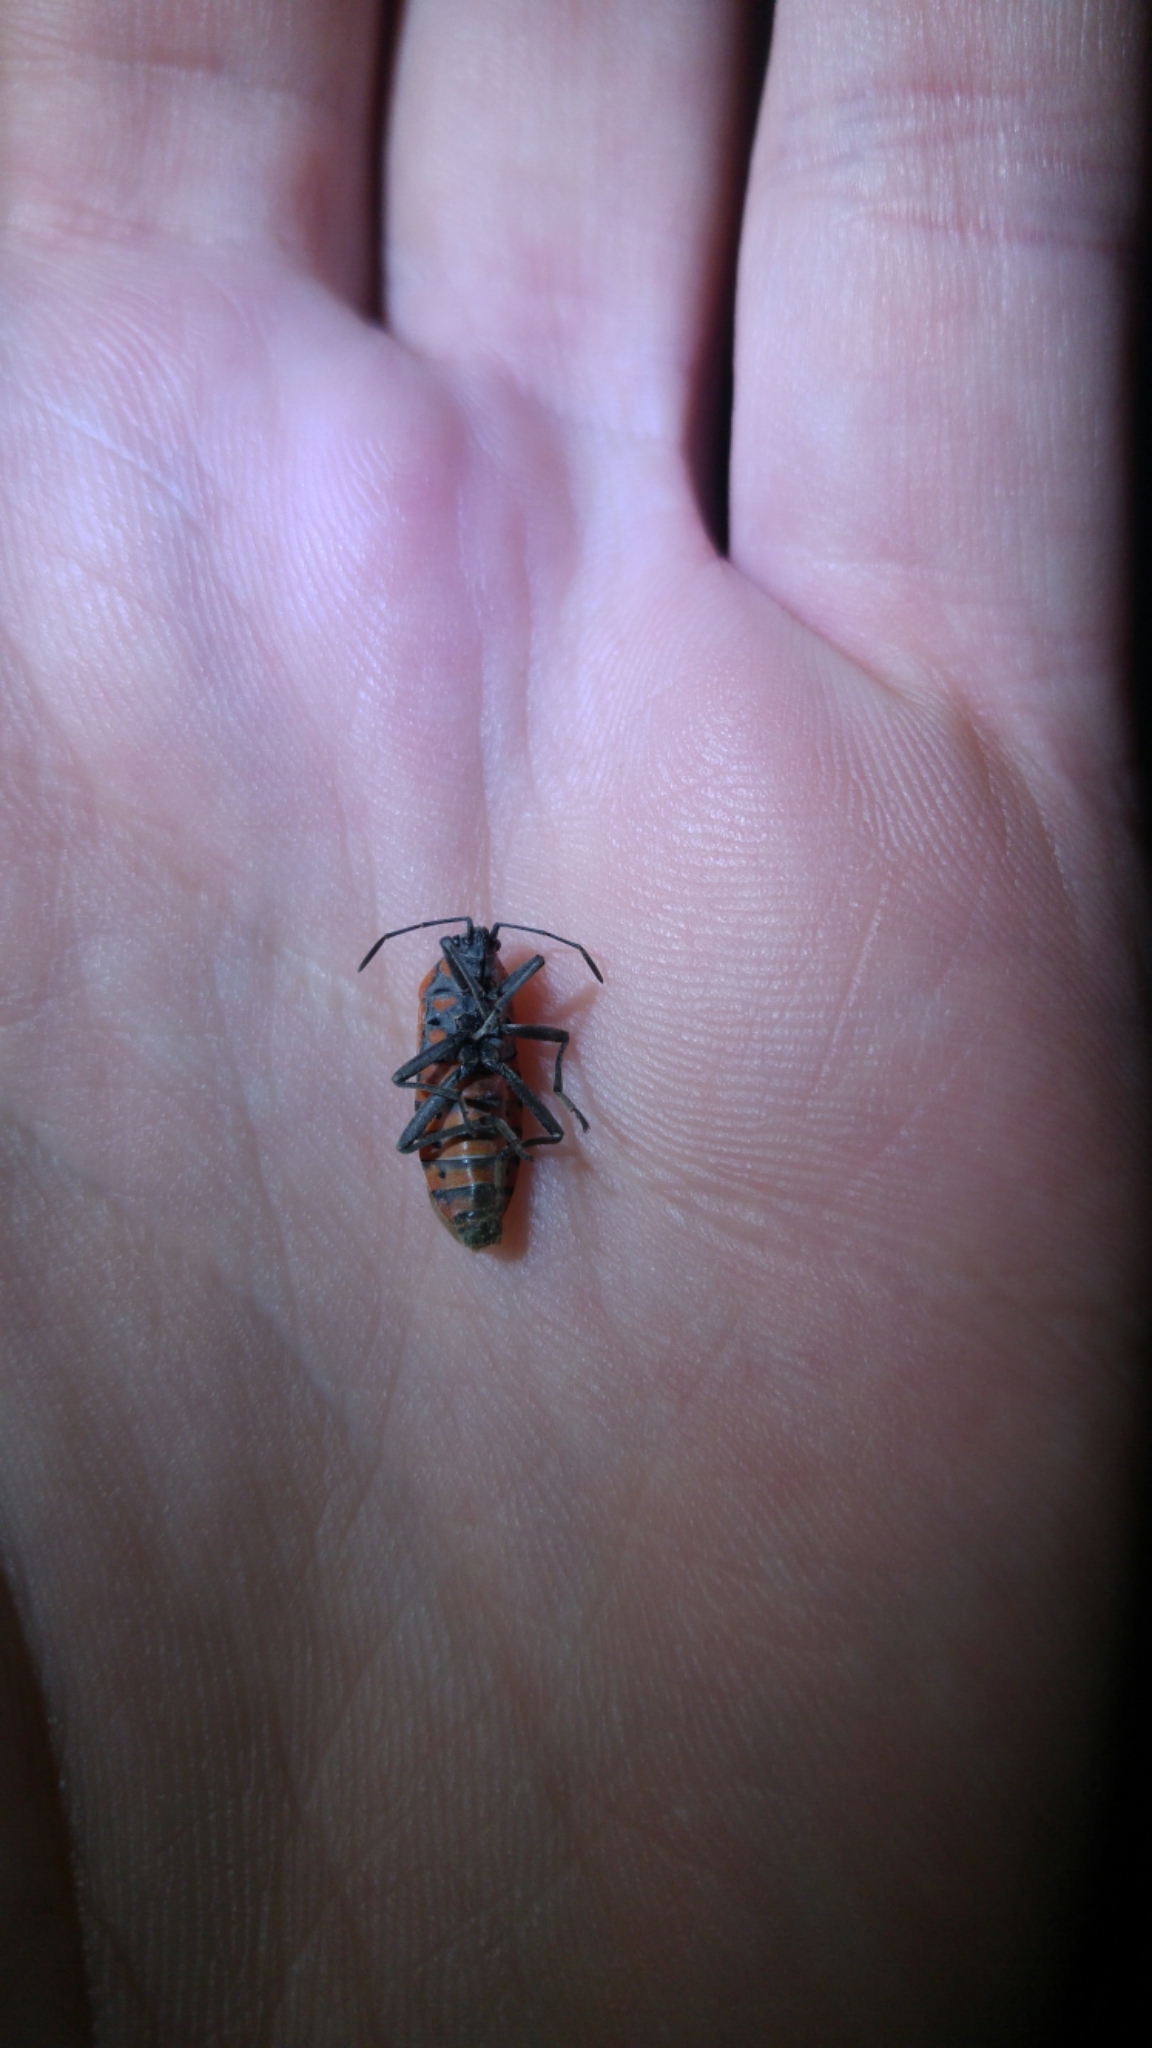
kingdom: Animalia
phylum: Arthropoda
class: Insecta
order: Hemiptera
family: Lygaeidae
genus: Spilostethus
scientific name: Spilostethus pandurus
